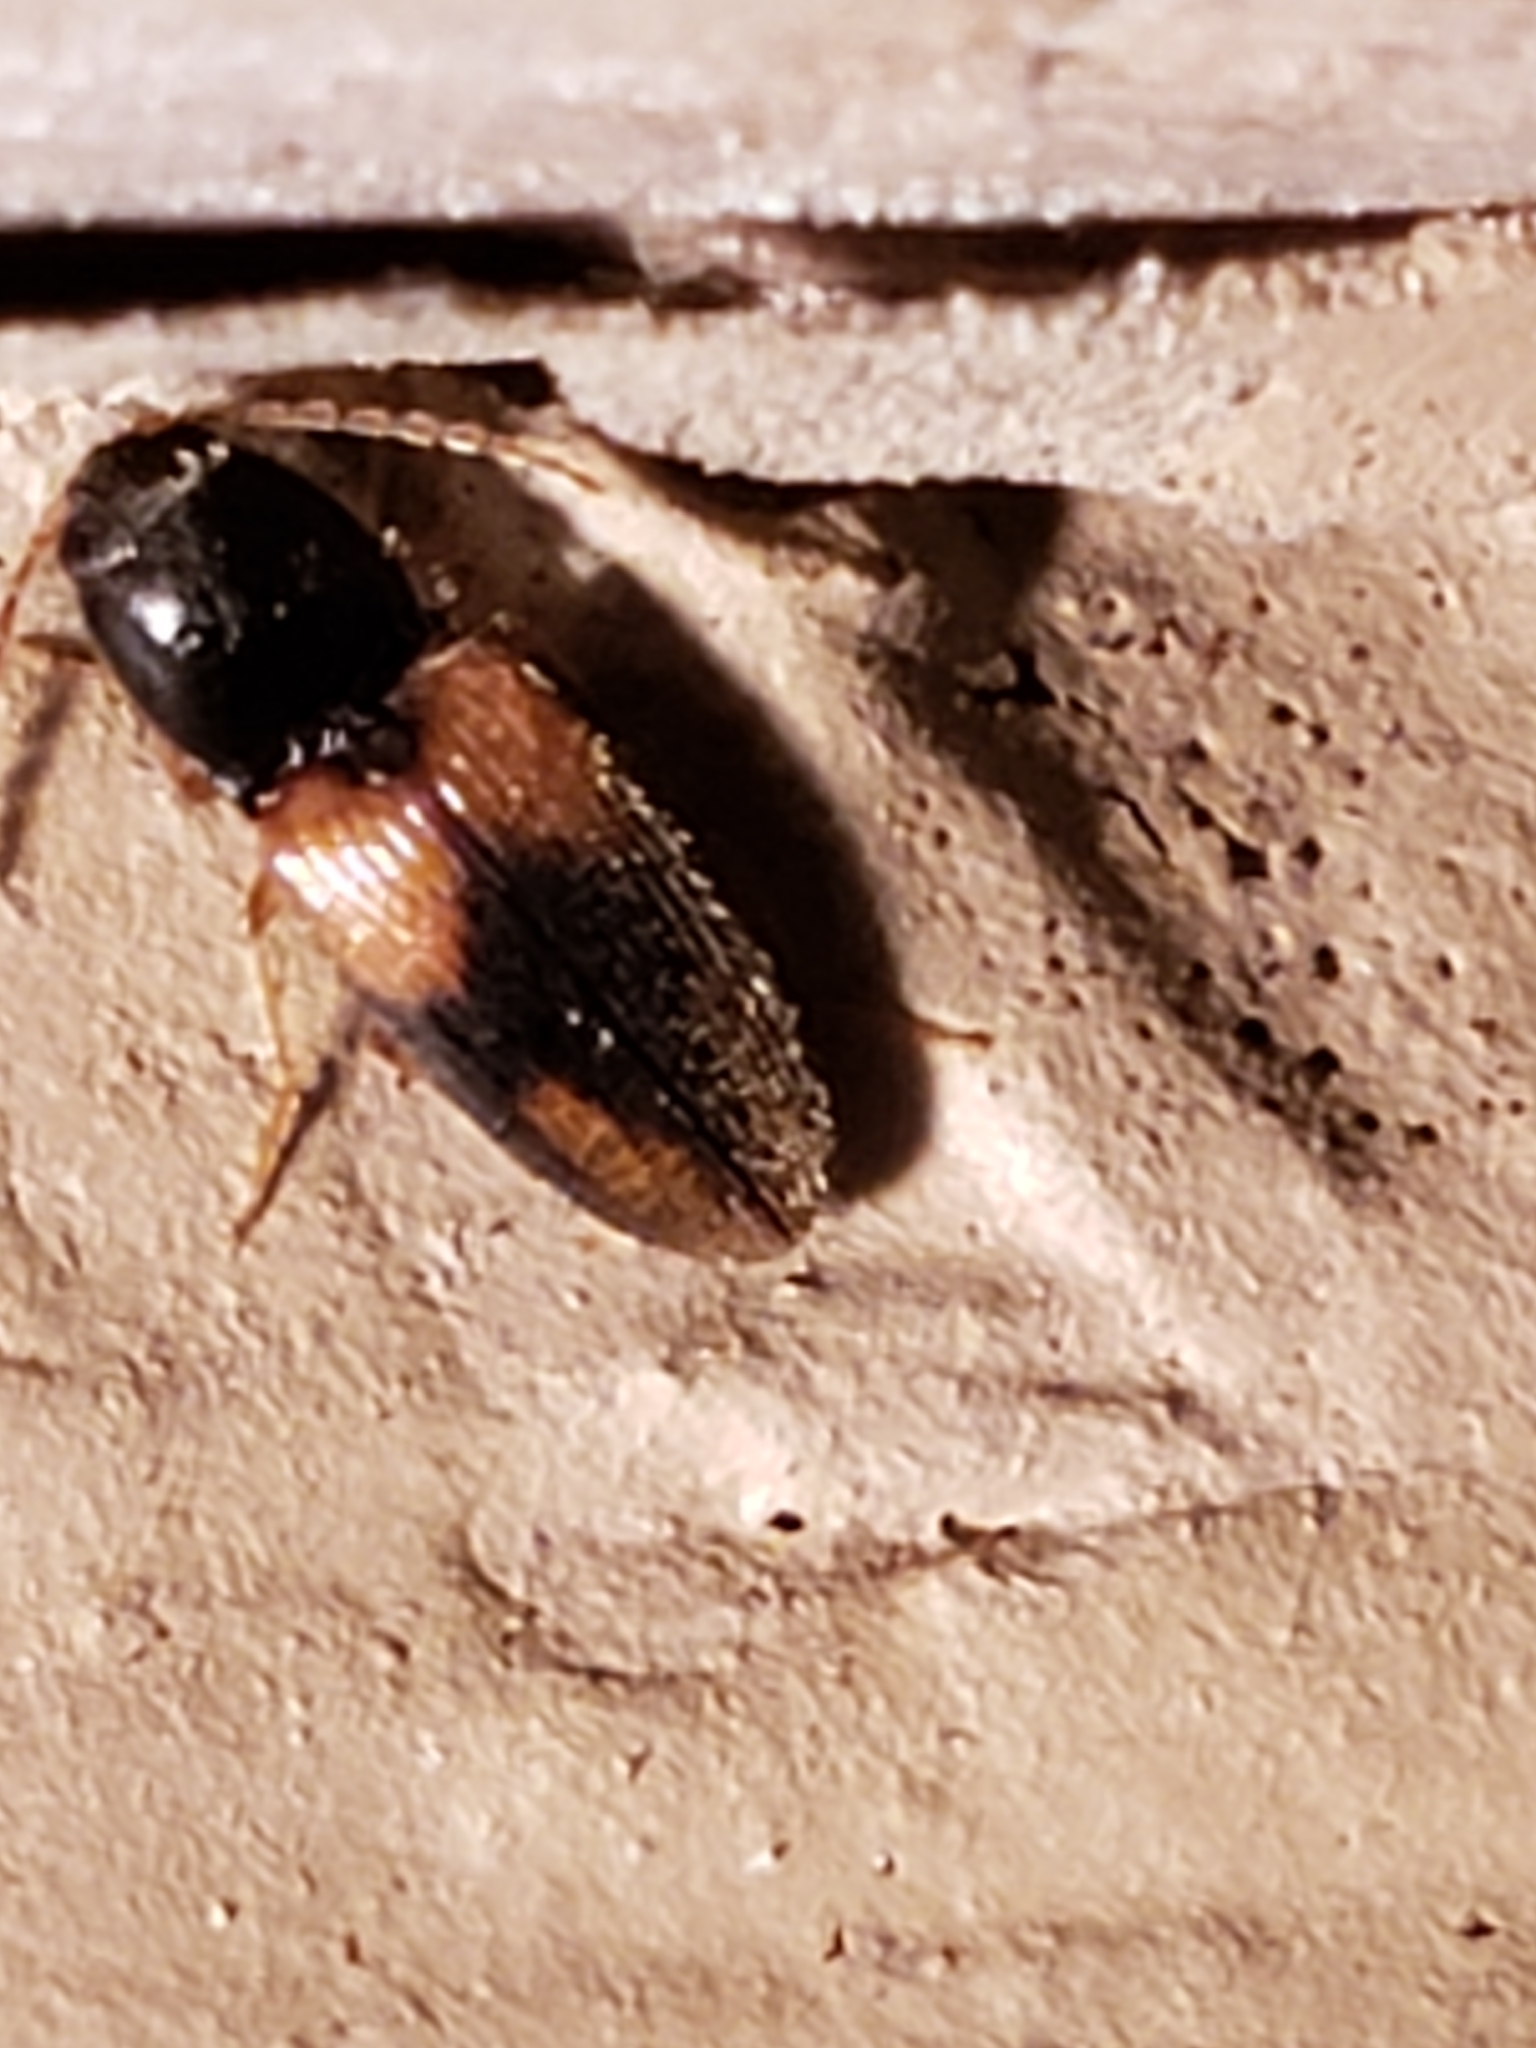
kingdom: Animalia
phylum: Arthropoda
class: Insecta
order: Coleoptera
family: Elateridae
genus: Horistonotus
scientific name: Horistonotus curiatus
